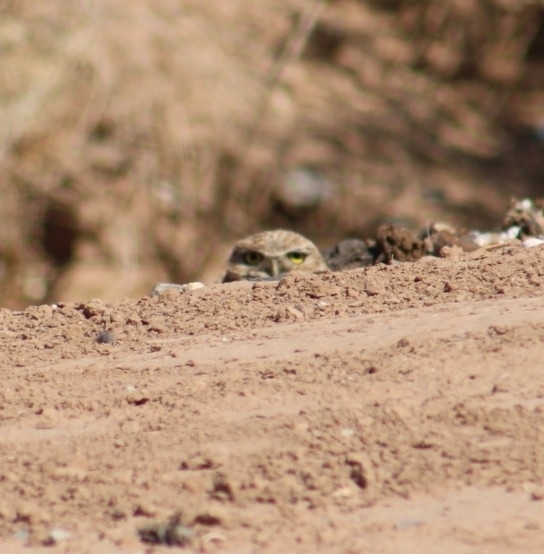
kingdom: Animalia
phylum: Chordata
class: Aves
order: Strigiformes
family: Strigidae
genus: Athene
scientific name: Athene cunicularia
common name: Burrowing owl
